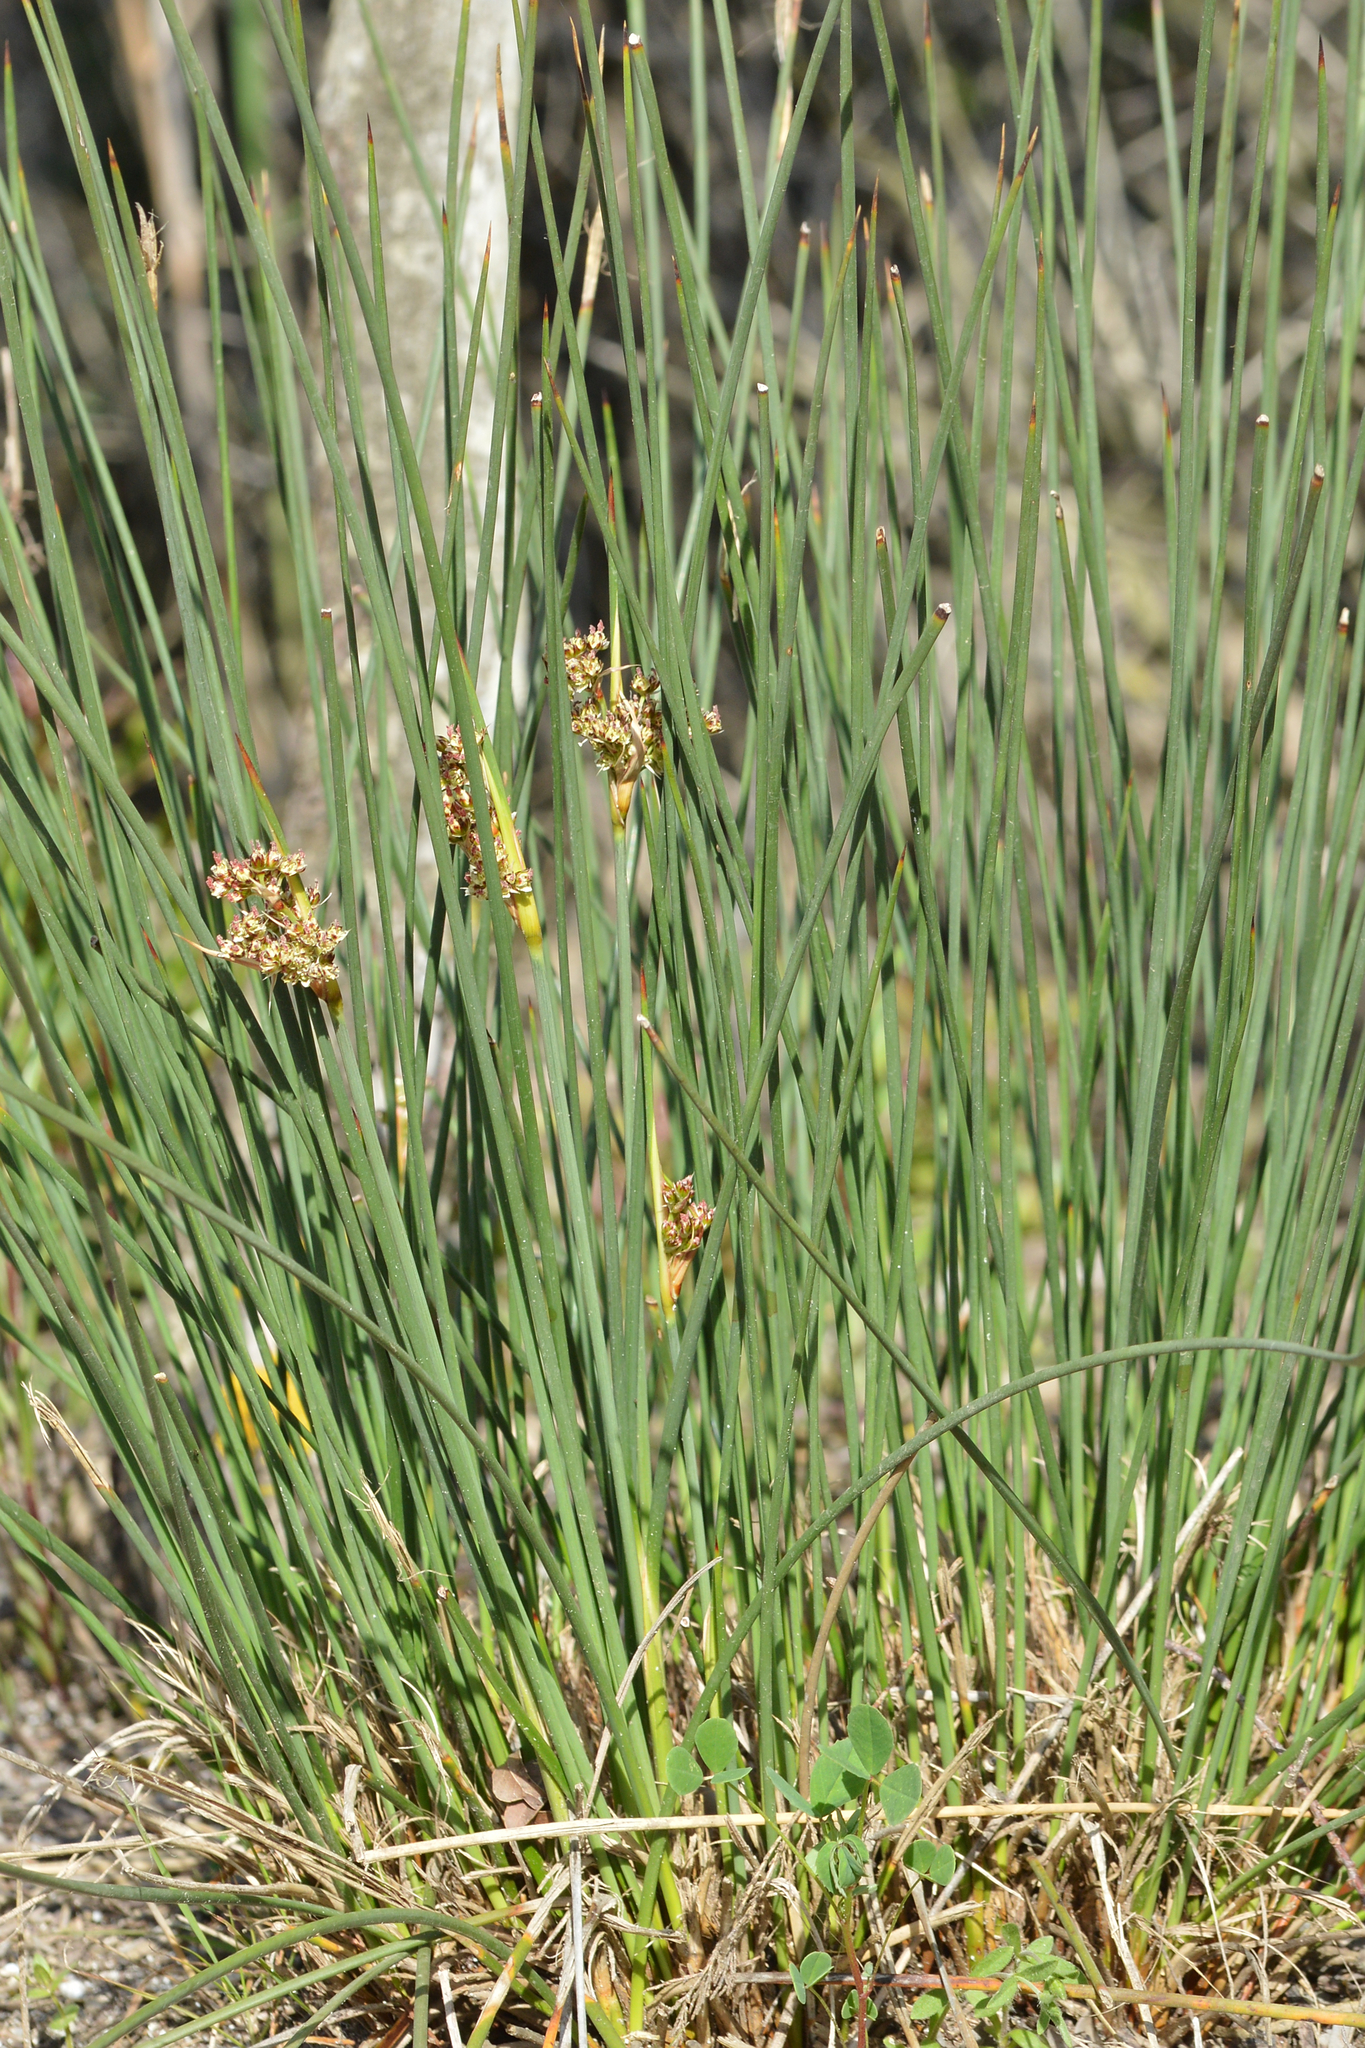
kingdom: Plantae
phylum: Tracheophyta
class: Liliopsida
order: Poales
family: Juncaceae
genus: Juncus
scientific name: Juncus acutus
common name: Sharp rush
